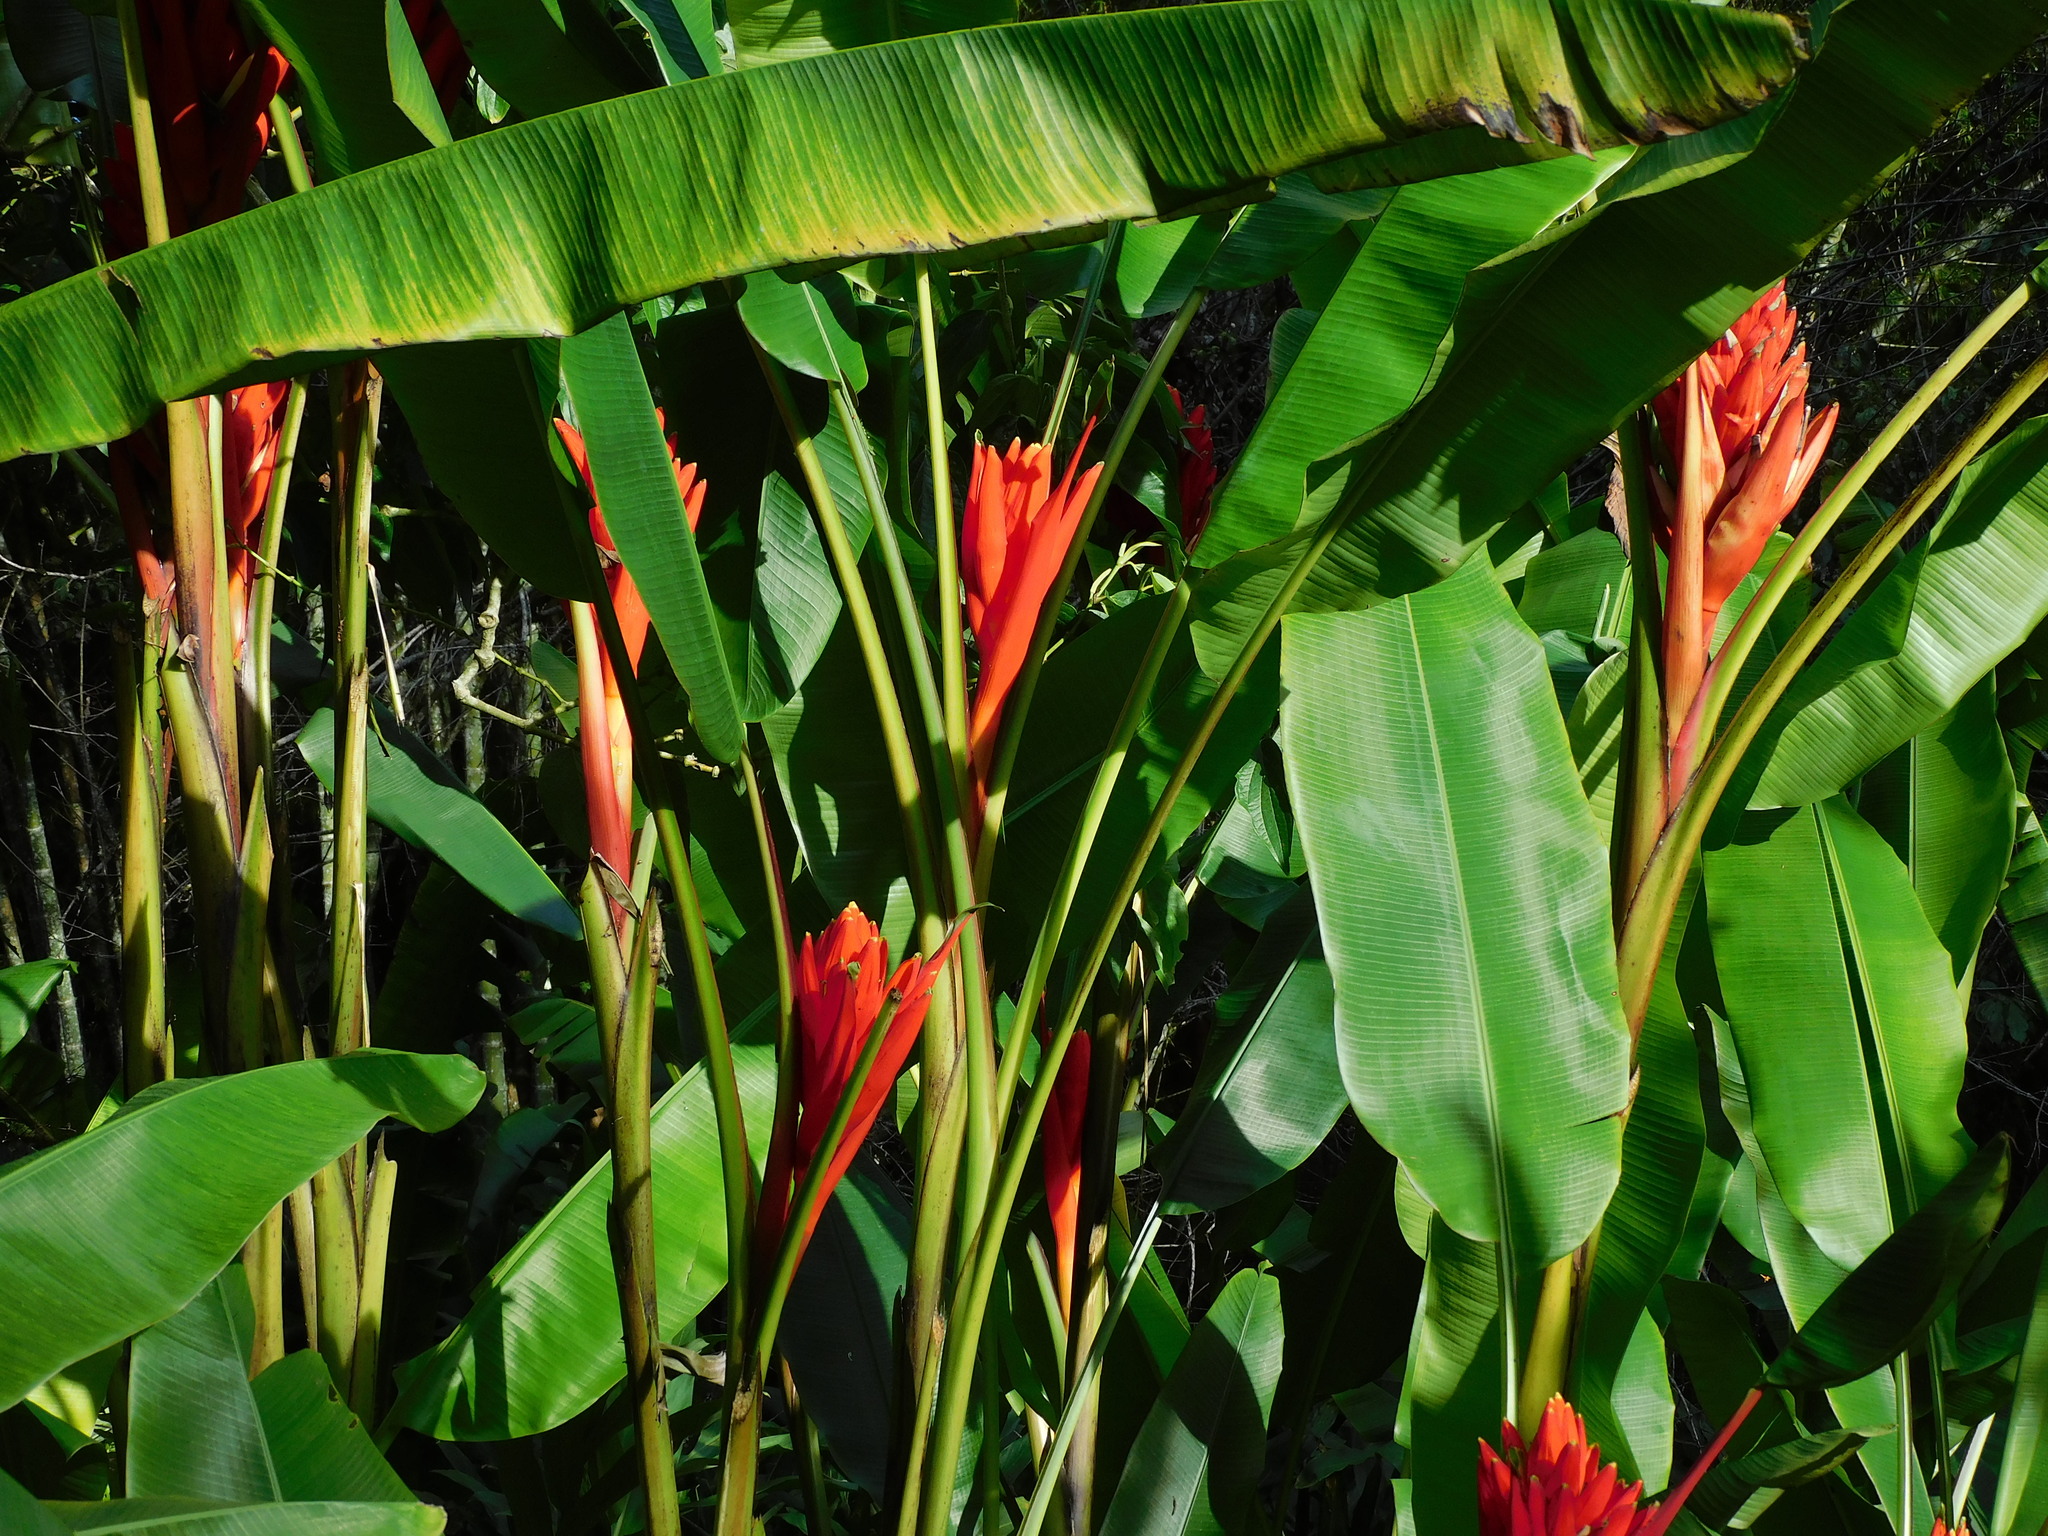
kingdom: Plantae
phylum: Tracheophyta
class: Liliopsida
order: Zingiberales
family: Musaceae
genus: Musa
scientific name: Musa coccinea
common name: Scarlet banana
